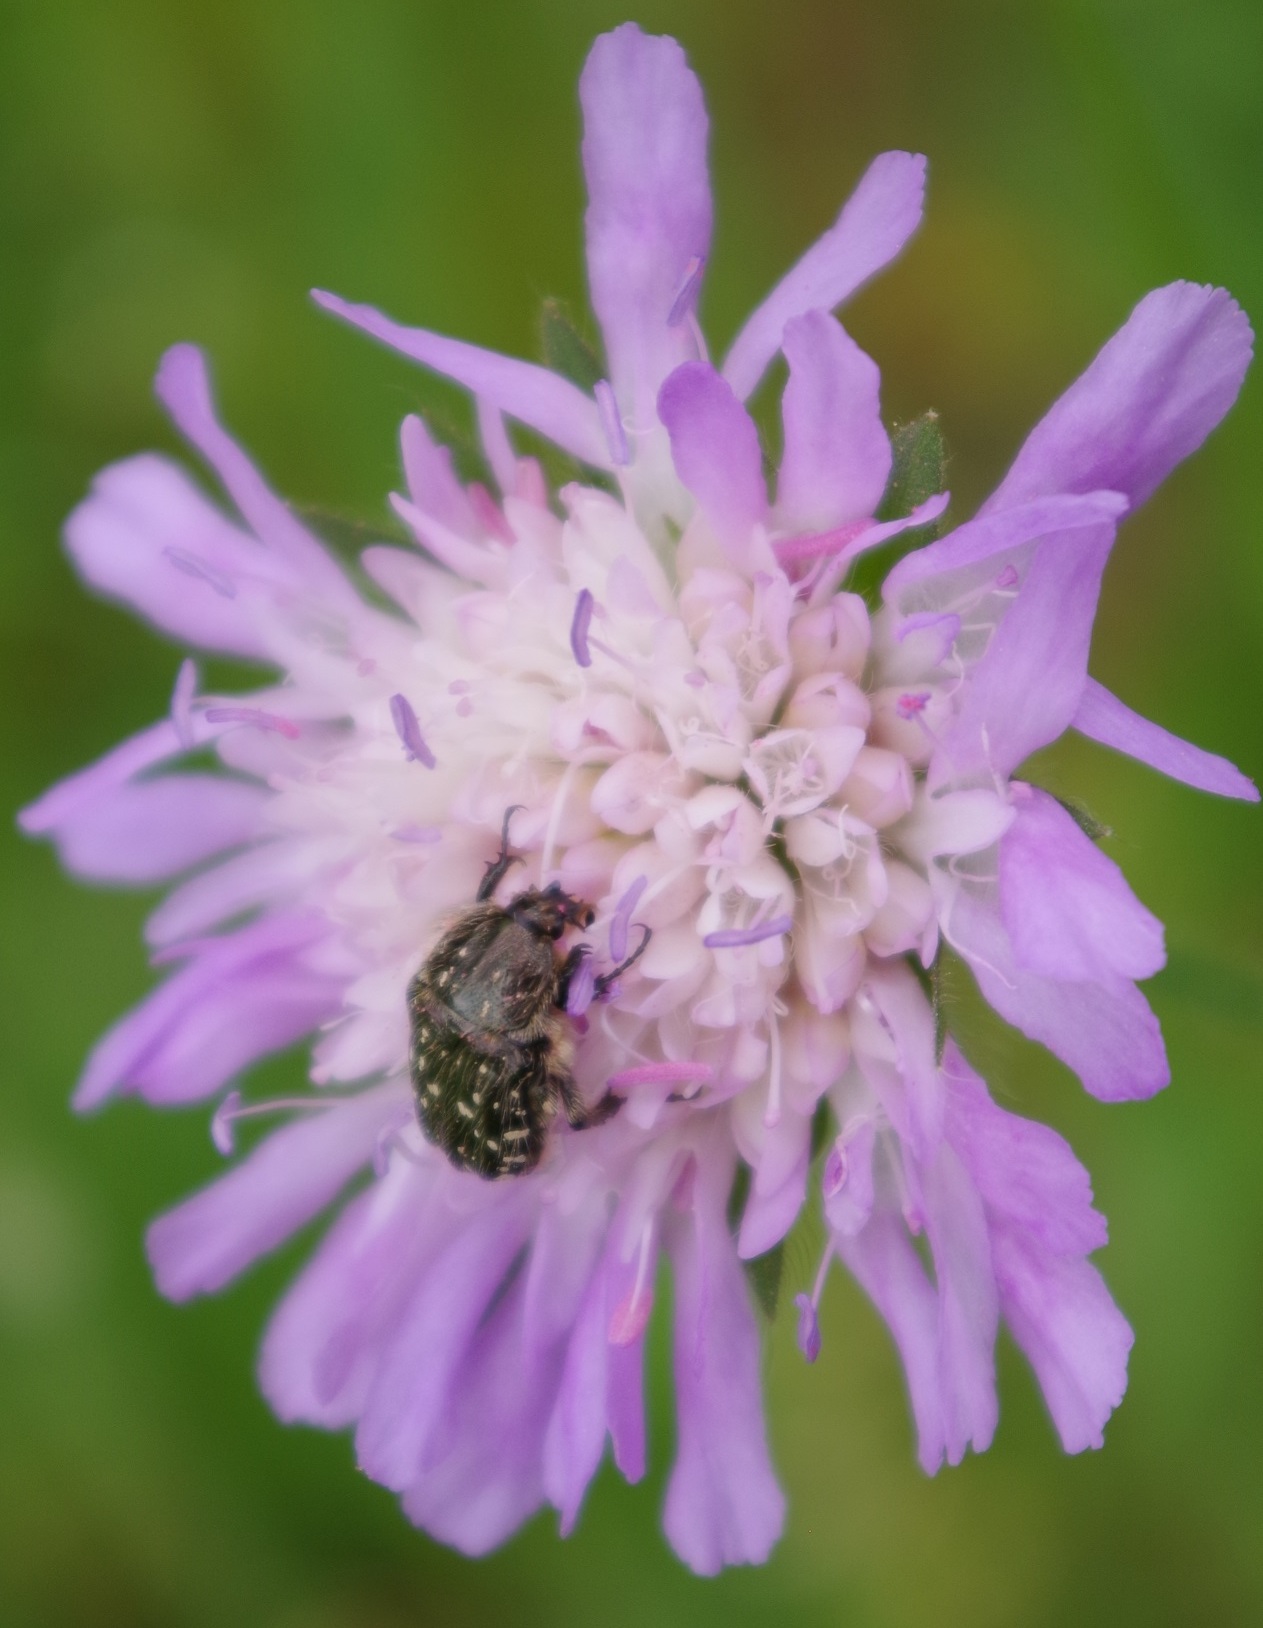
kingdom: Animalia
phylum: Arthropoda
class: Insecta
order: Coleoptera
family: Scarabaeidae
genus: Oxythyrea
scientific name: Oxythyrea funesta
